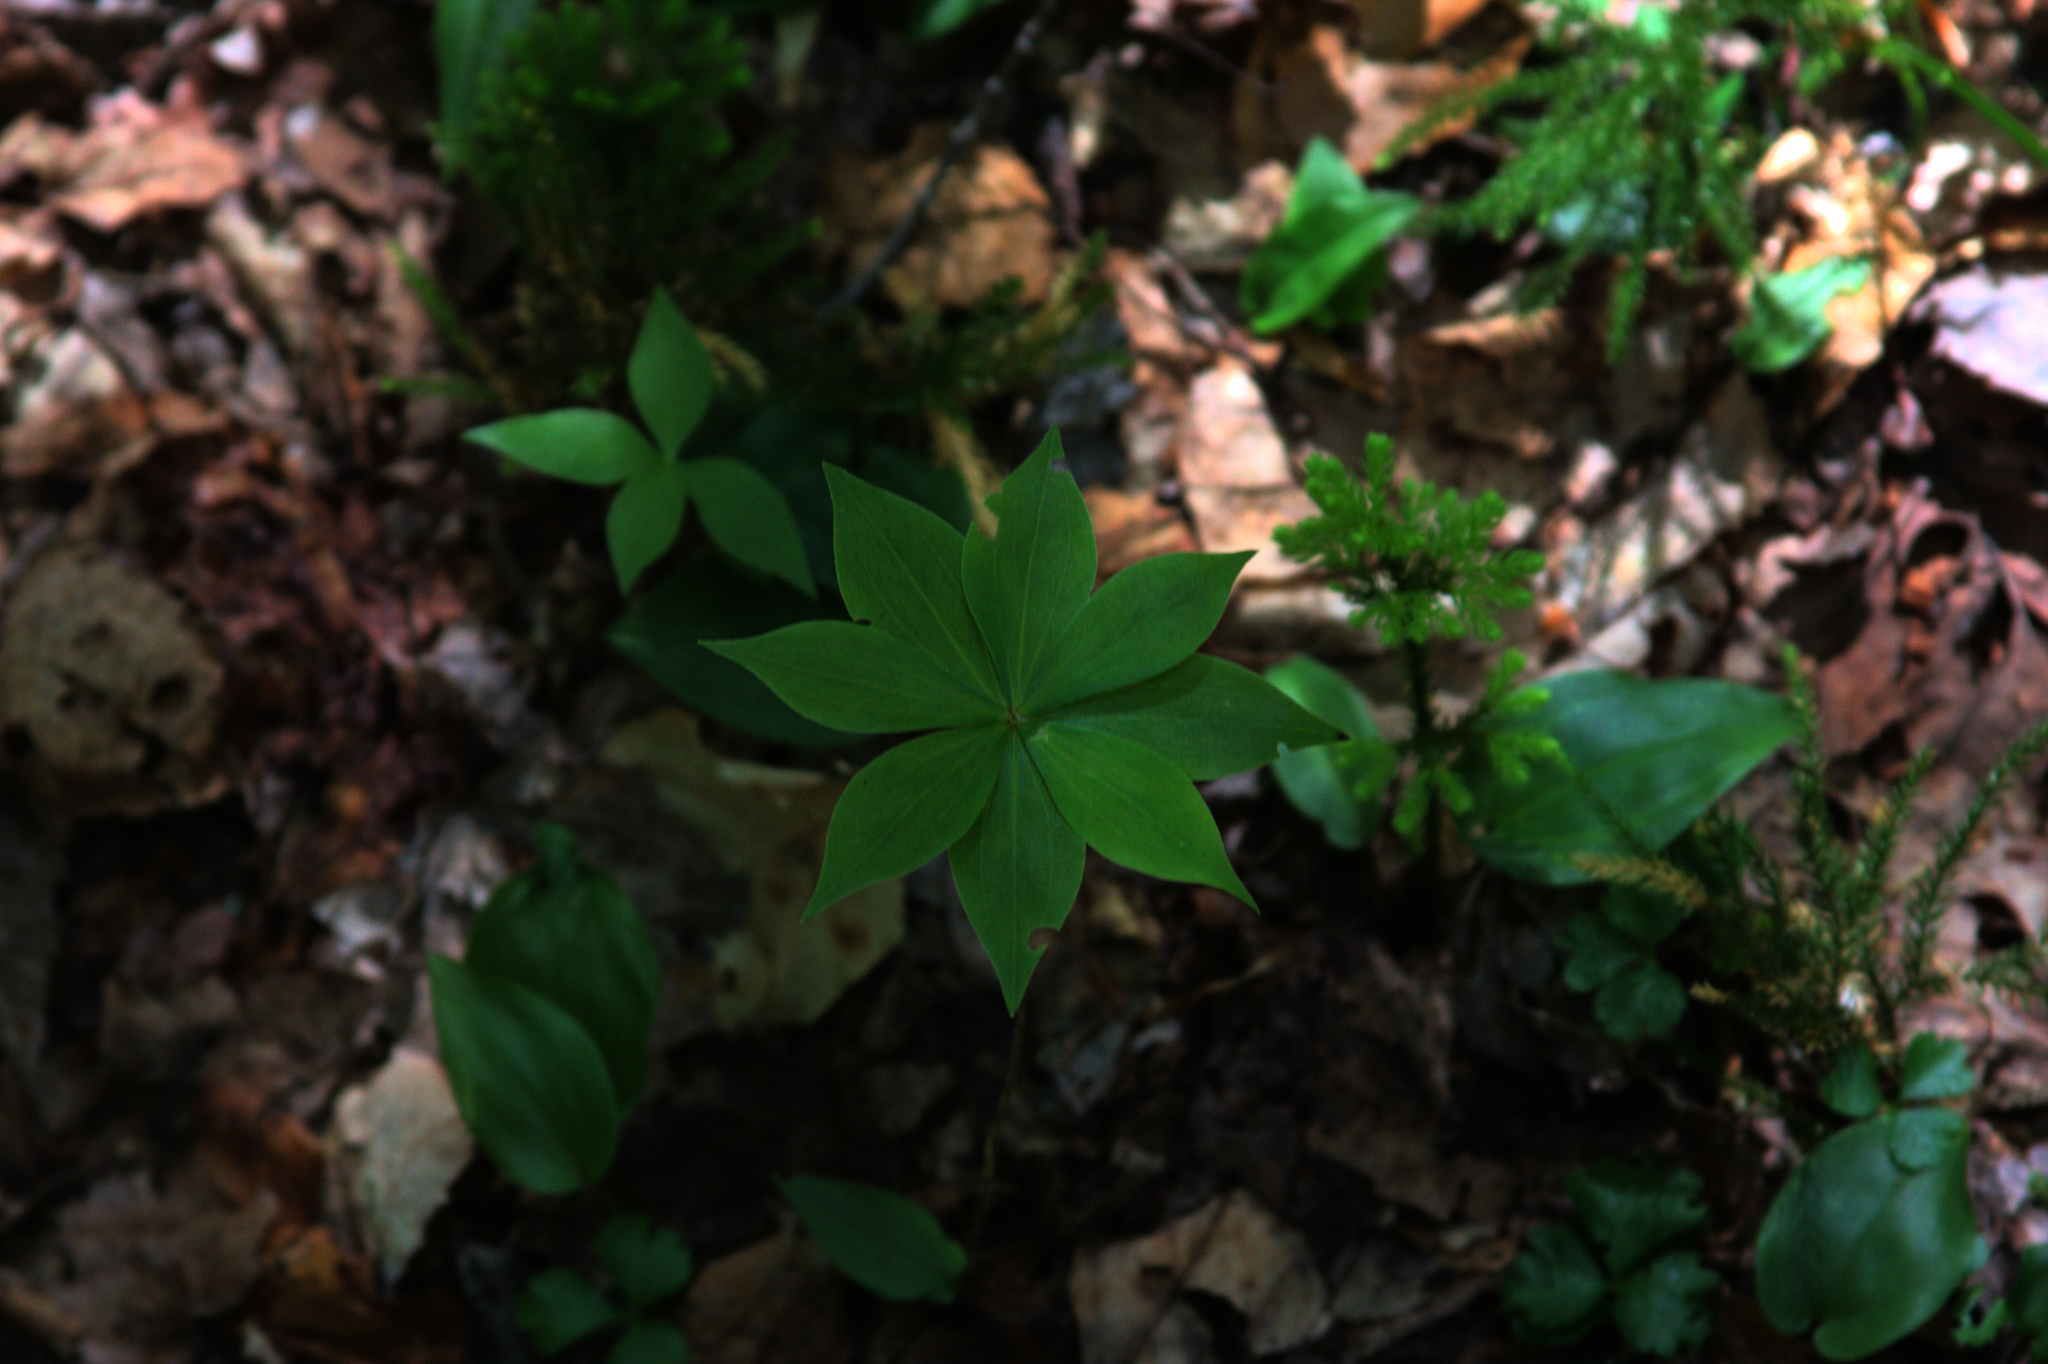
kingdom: Plantae
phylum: Tracheophyta
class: Liliopsida
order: Liliales
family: Liliaceae
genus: Medeola
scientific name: Medeola virginiana
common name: Indian cucumber-root
